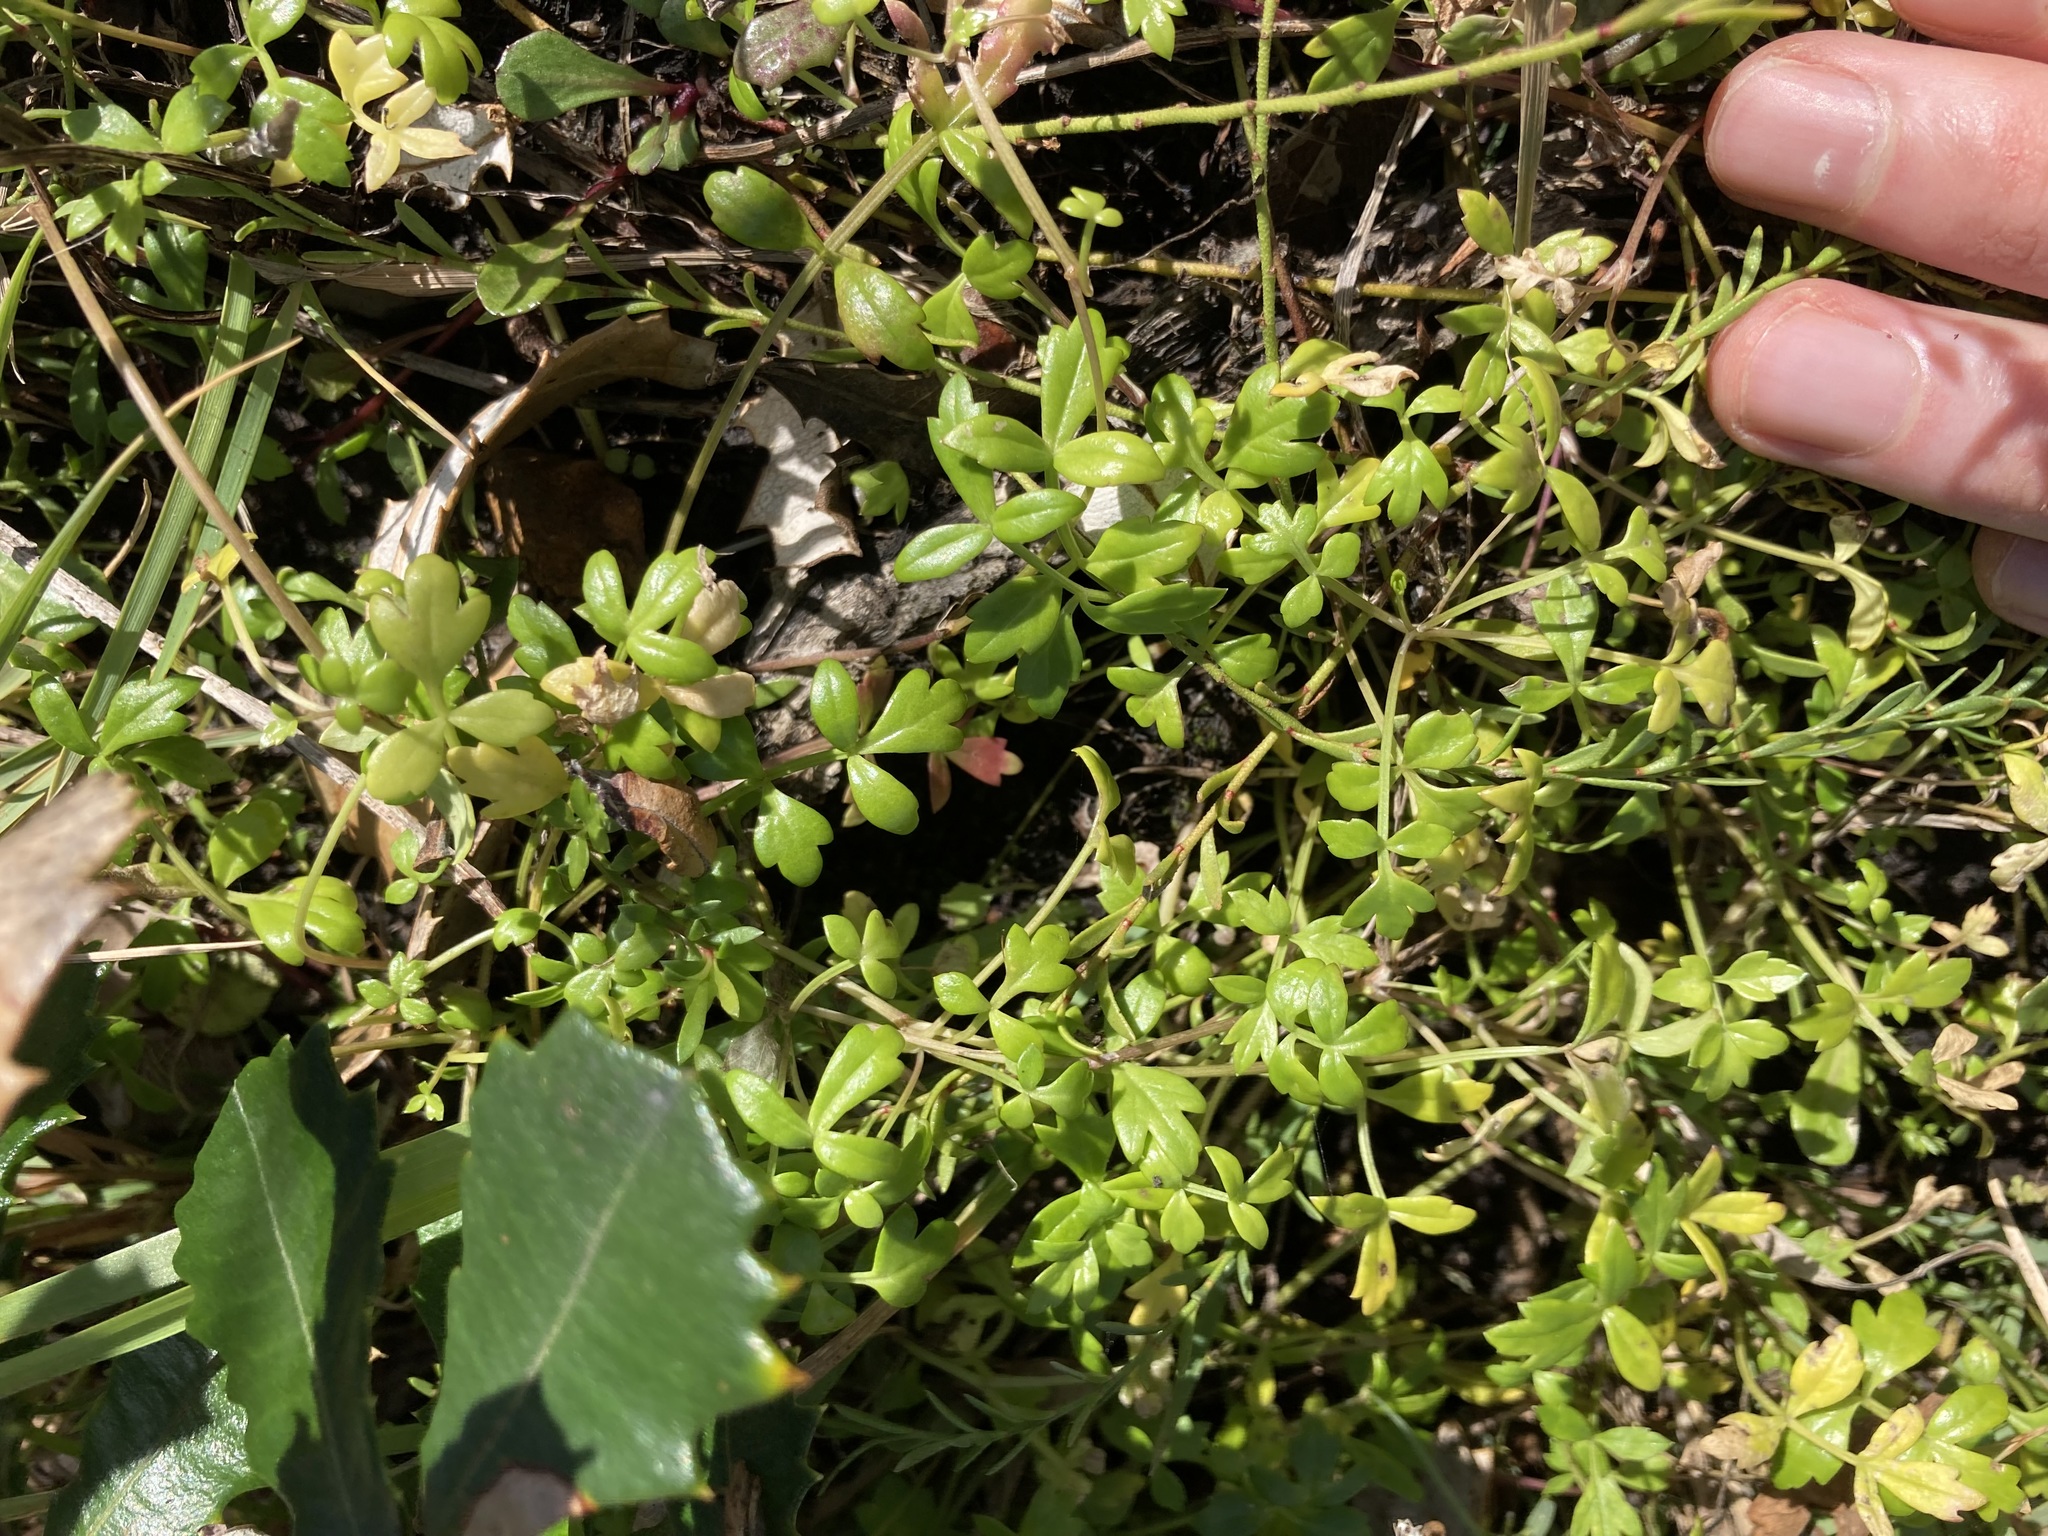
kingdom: Plantae
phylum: Tracheophyta
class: Magnoliopsida
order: Apiales
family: Apiaceae
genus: Apium
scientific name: Apium prostratum
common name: Prostrate marshwort
